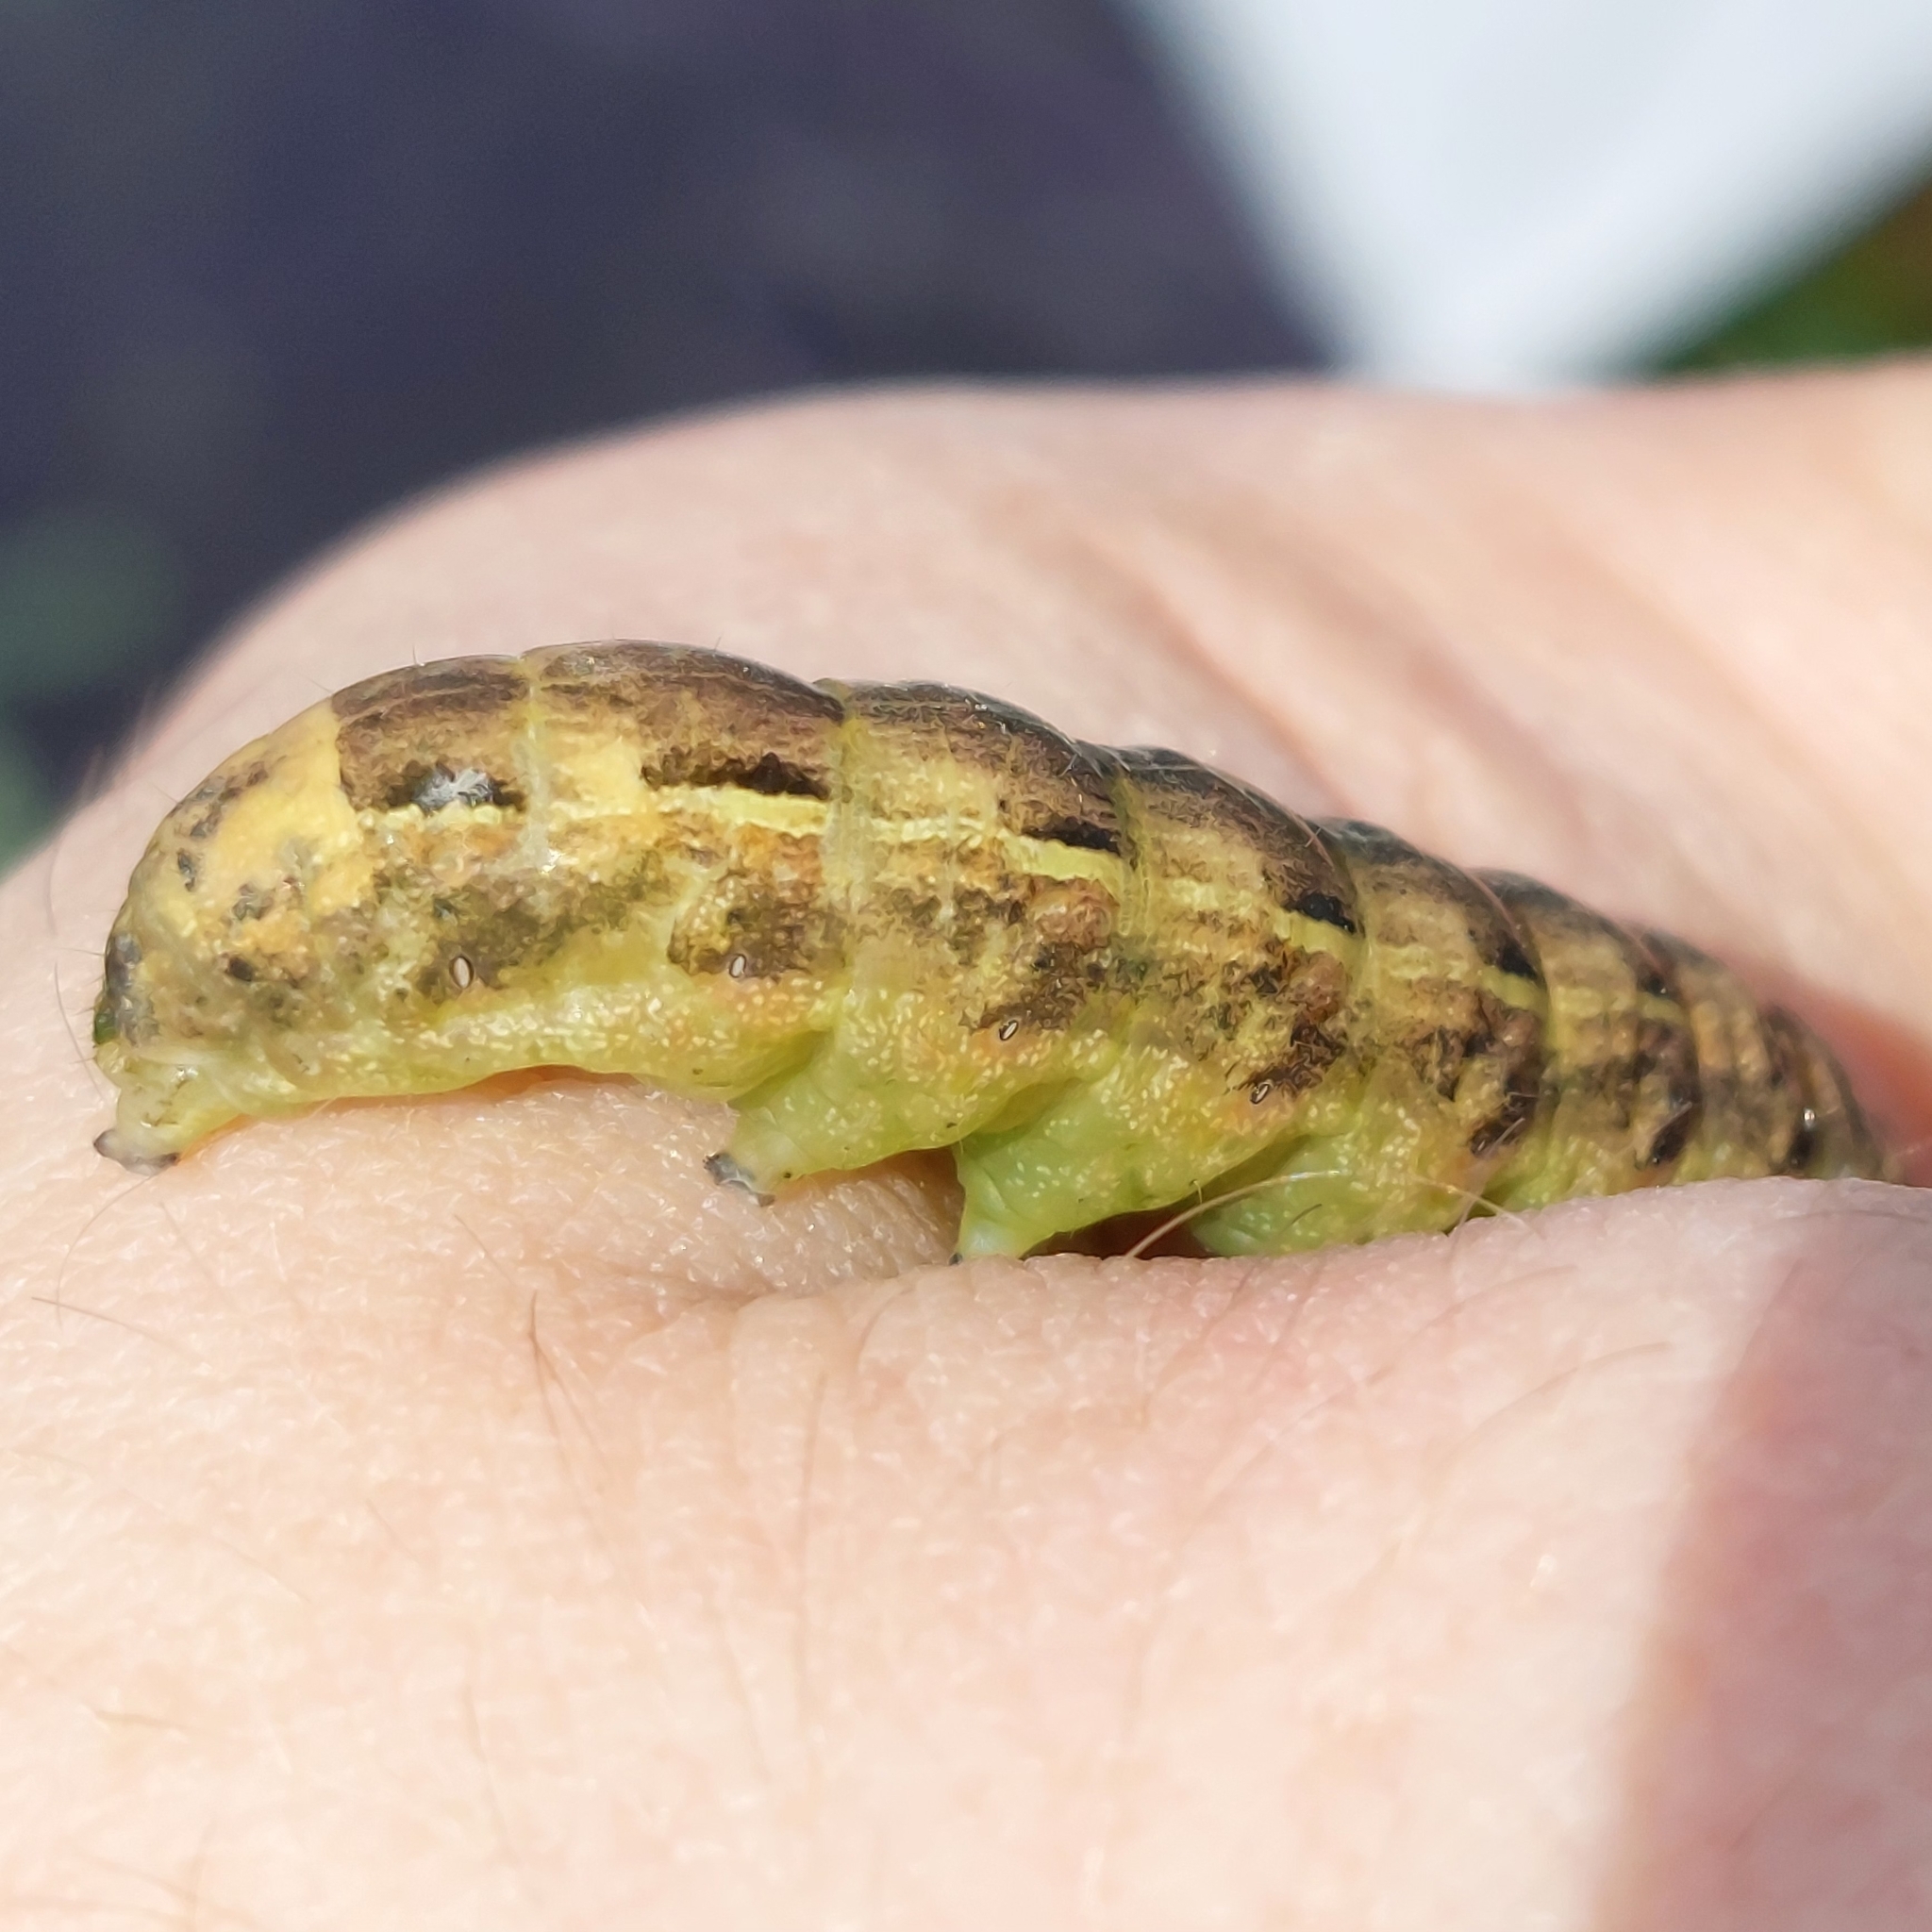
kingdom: Animalia
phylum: Arthropoda
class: Insecta
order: Lepidoptera
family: Noctuidae
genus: Noctua
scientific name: Noctua pronuba
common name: Large yellow underwing
